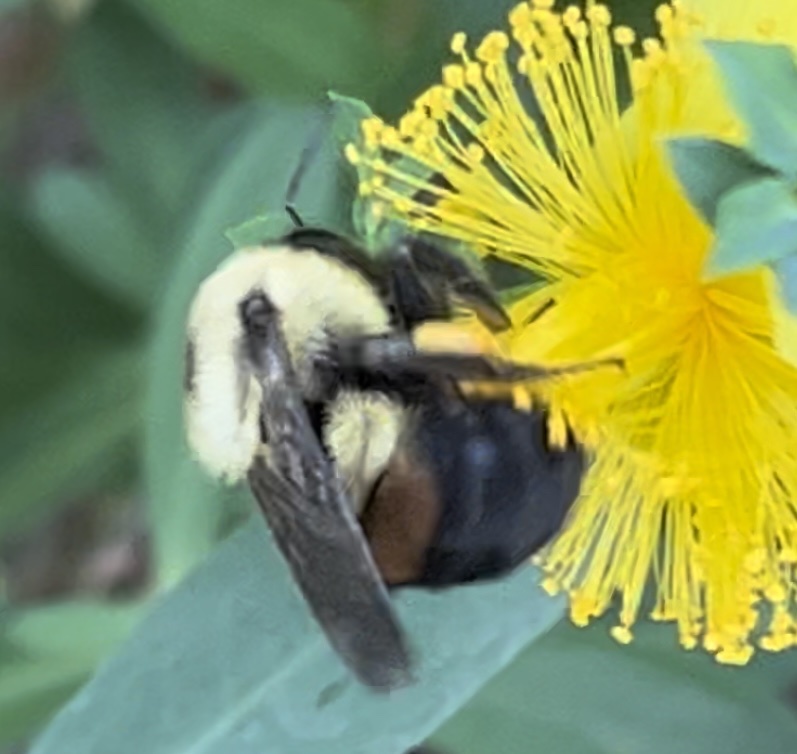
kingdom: Animalia
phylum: Arthropoda
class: Insecta
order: Hymenoptera
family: Apidae
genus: Bombus
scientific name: Bombus griseocollis
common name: Brown-belted bumble bee
